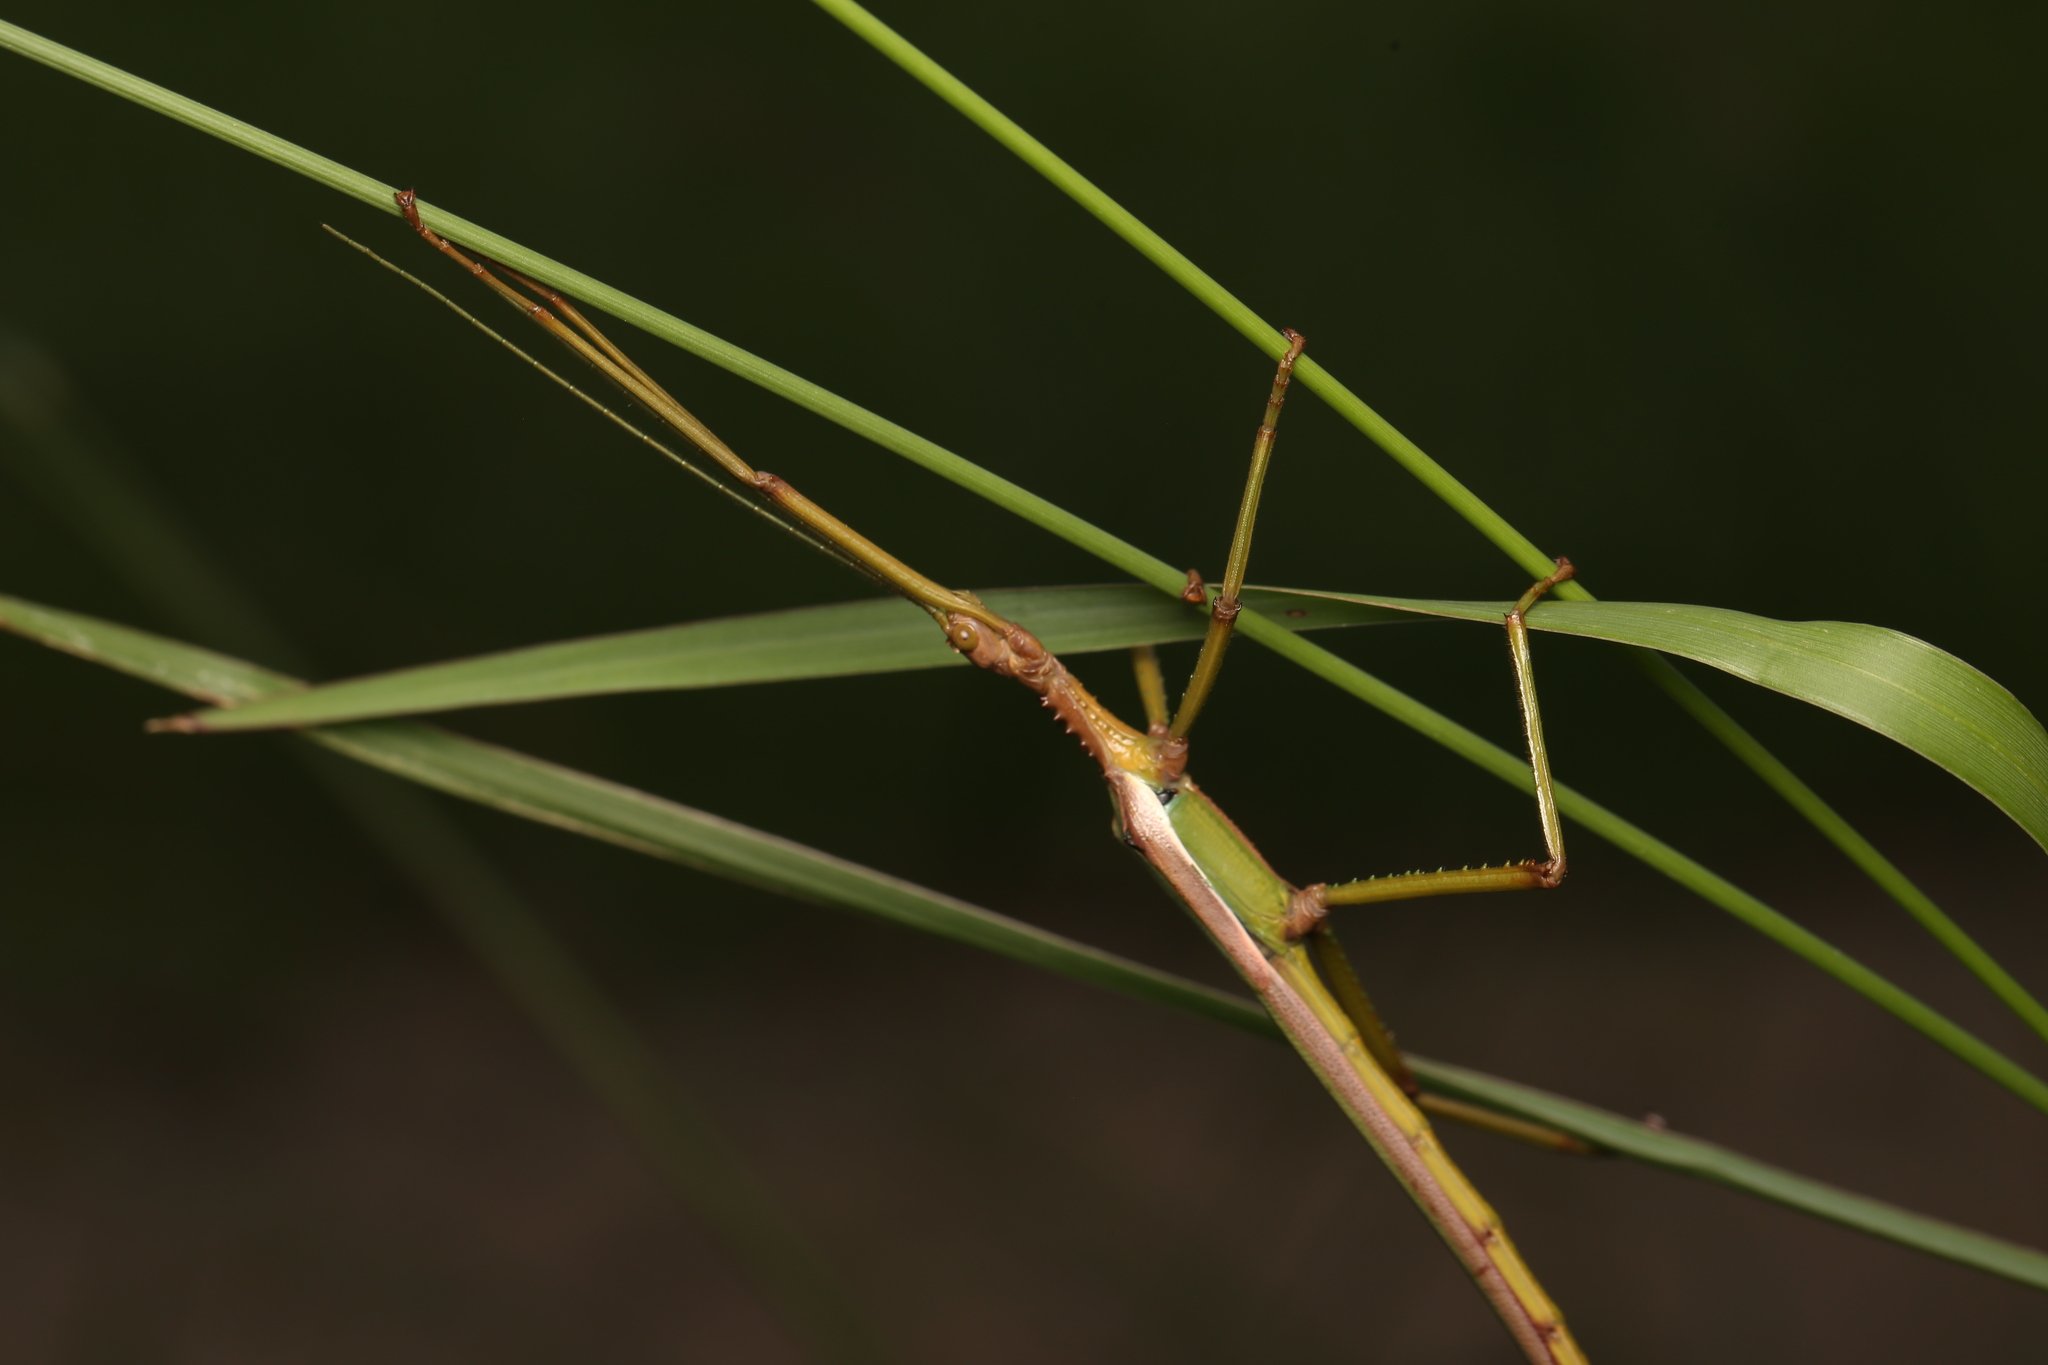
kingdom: Animalia
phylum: Arthropoda
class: Insecta
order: Phasmida
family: Phasmatidae
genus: Podacanthus
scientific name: Podacanthus viridiroseus
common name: Red-winged stick-insect
